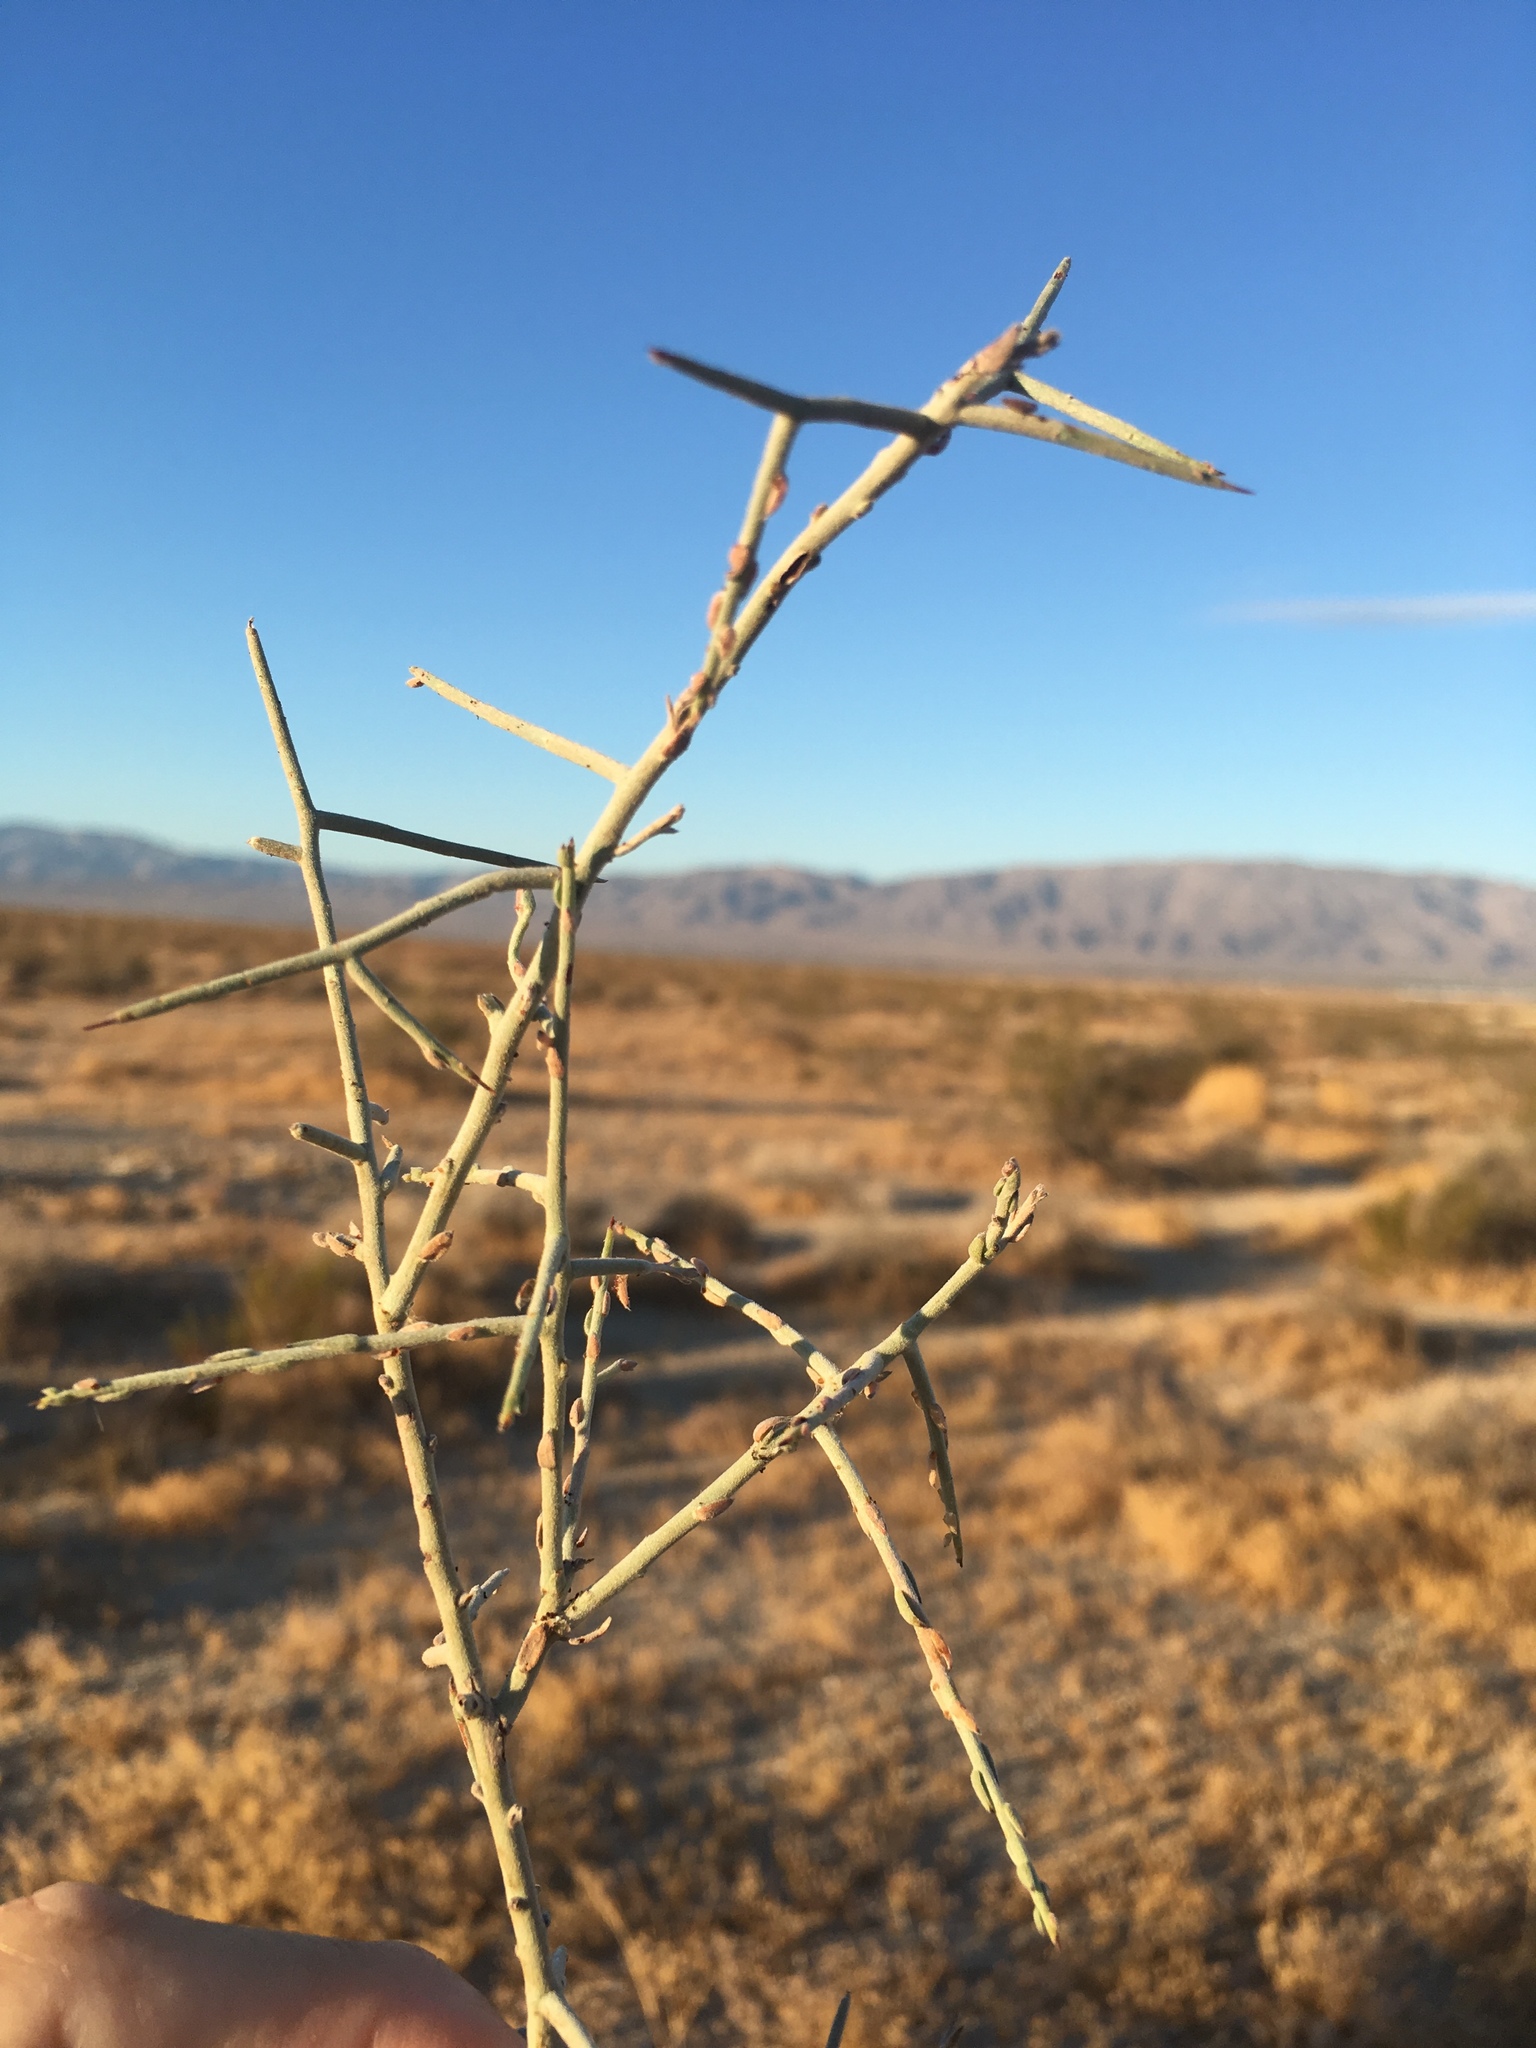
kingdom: Plantae
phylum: Tracheophyta
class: Magnoliopsida
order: Zygophyllales
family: Krameriaceae
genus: Krameria
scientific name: Krameria bicolor
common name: White ratany
